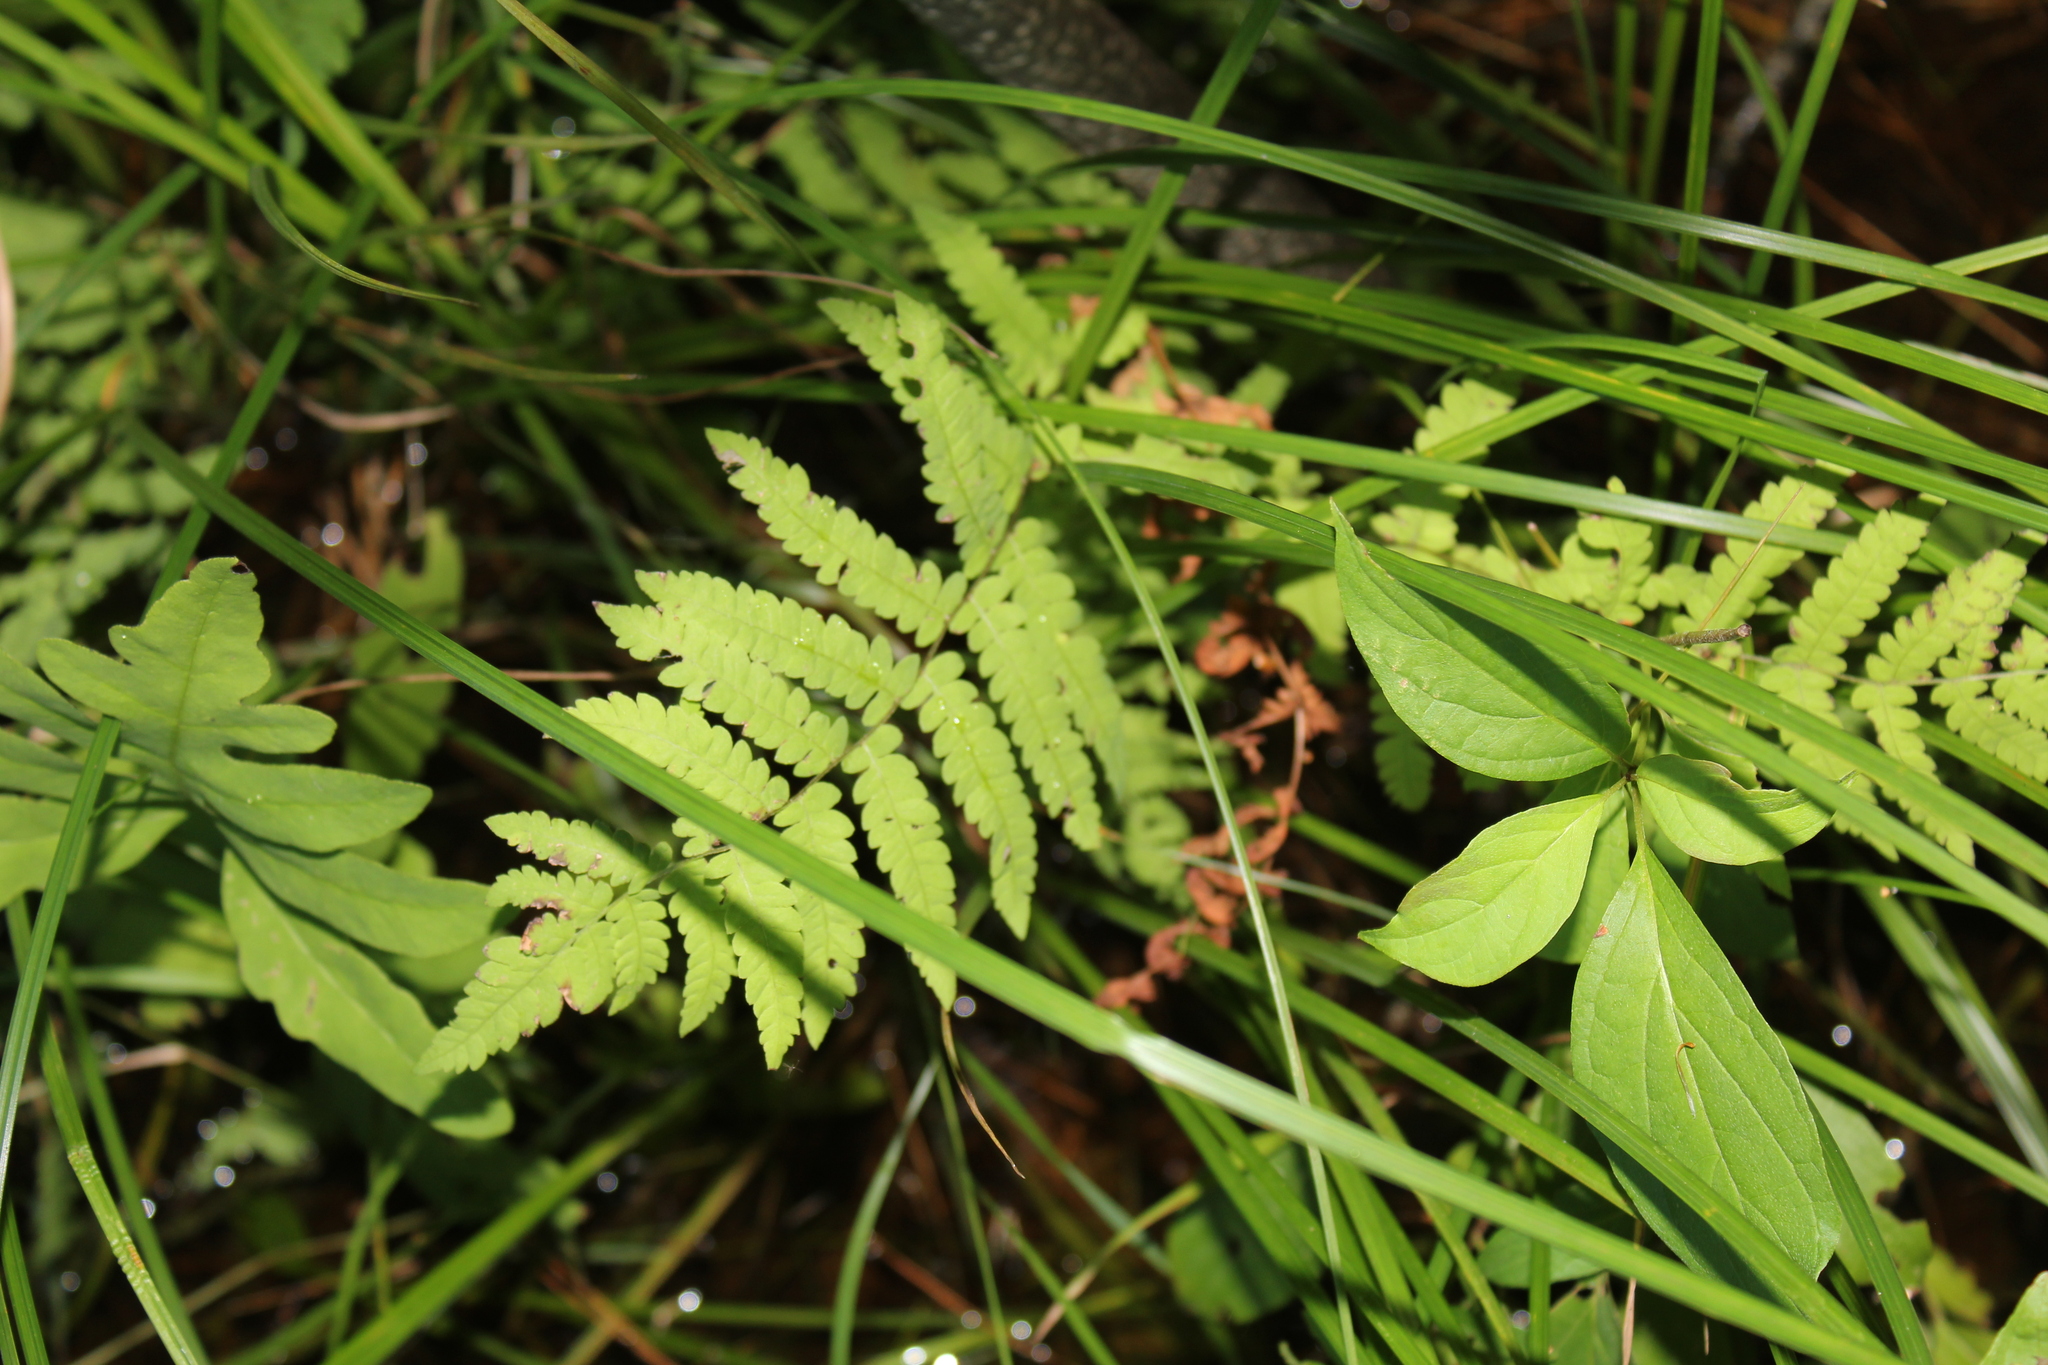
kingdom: Plantae
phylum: Tracheophyta
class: Polypodiopsida
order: Polypodiales
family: Thelypteridaceae
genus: Thelypteris
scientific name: Thelypteris palustris
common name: Marsh fern
